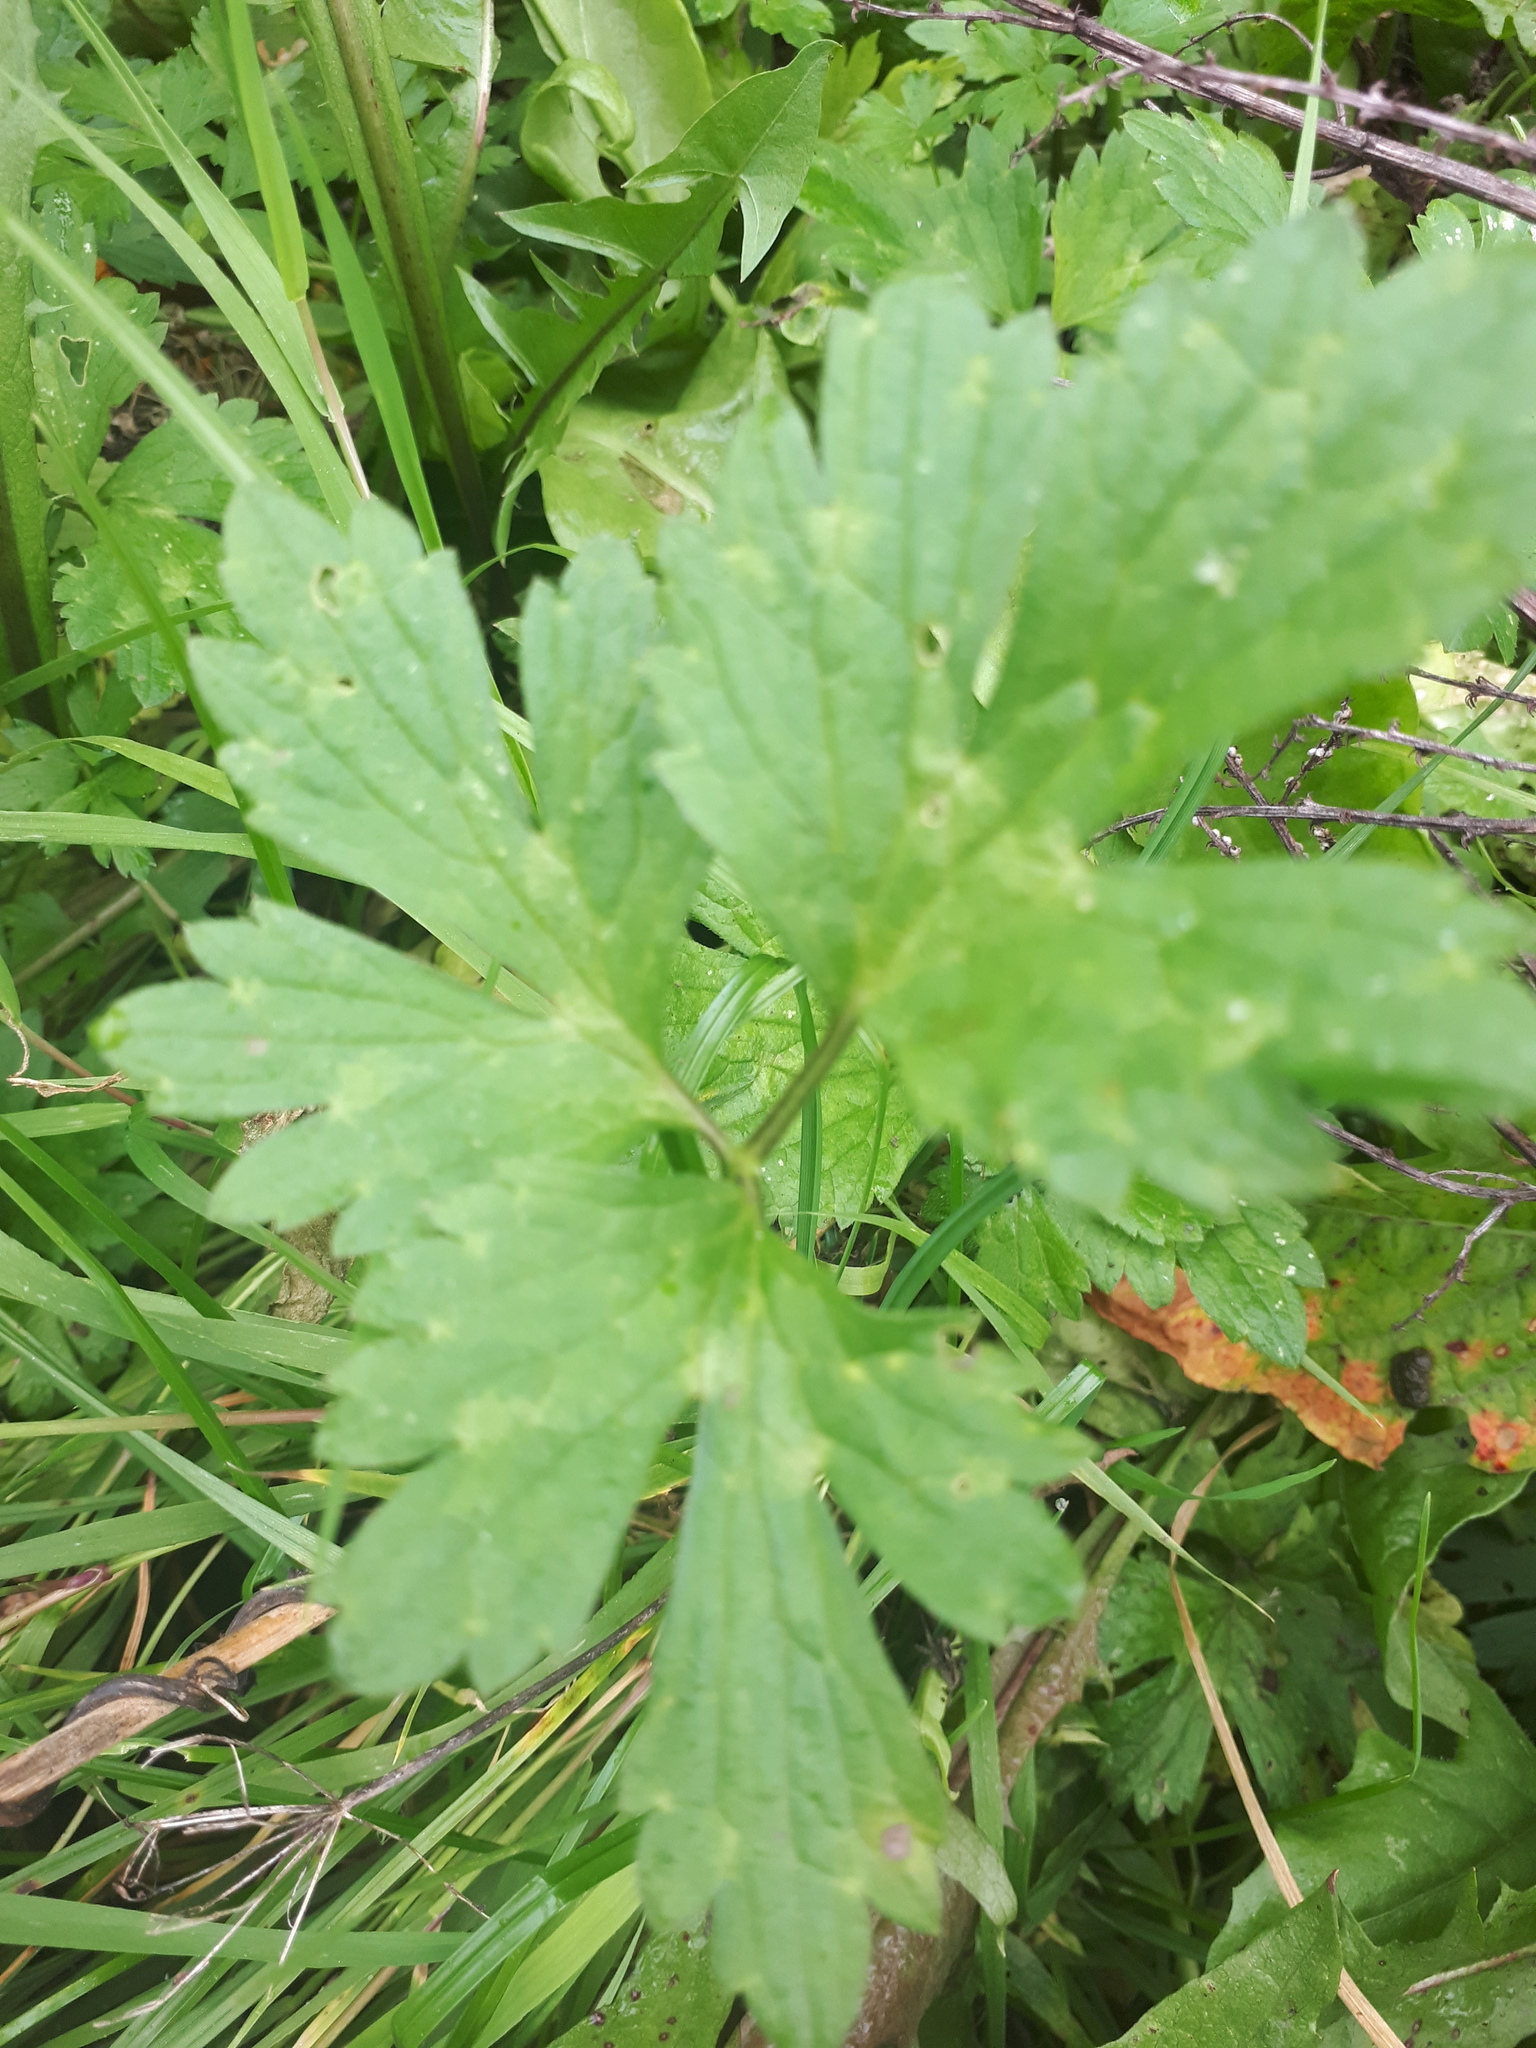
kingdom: Plantae
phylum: Tracheophyta
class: Magnoliopsida
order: Ranunculales
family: Ranunculaceae
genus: Ranunculus
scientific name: Ranunculus repens
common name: Creeping buttercup
